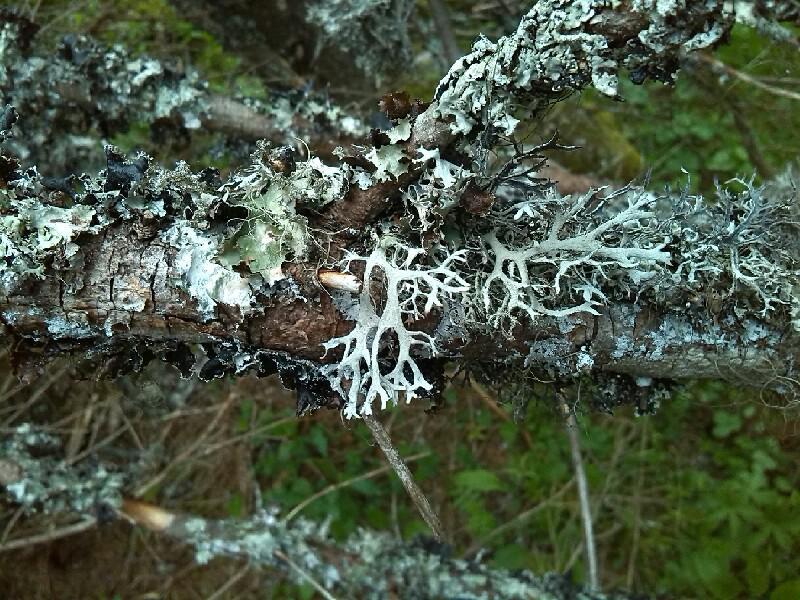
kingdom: Fungi
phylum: Ascomycota
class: Lecanoromycetes
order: Lecanorales
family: Parmeliaceae
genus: Platismatia
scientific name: Platismatia glauca
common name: Varied rag lichen
